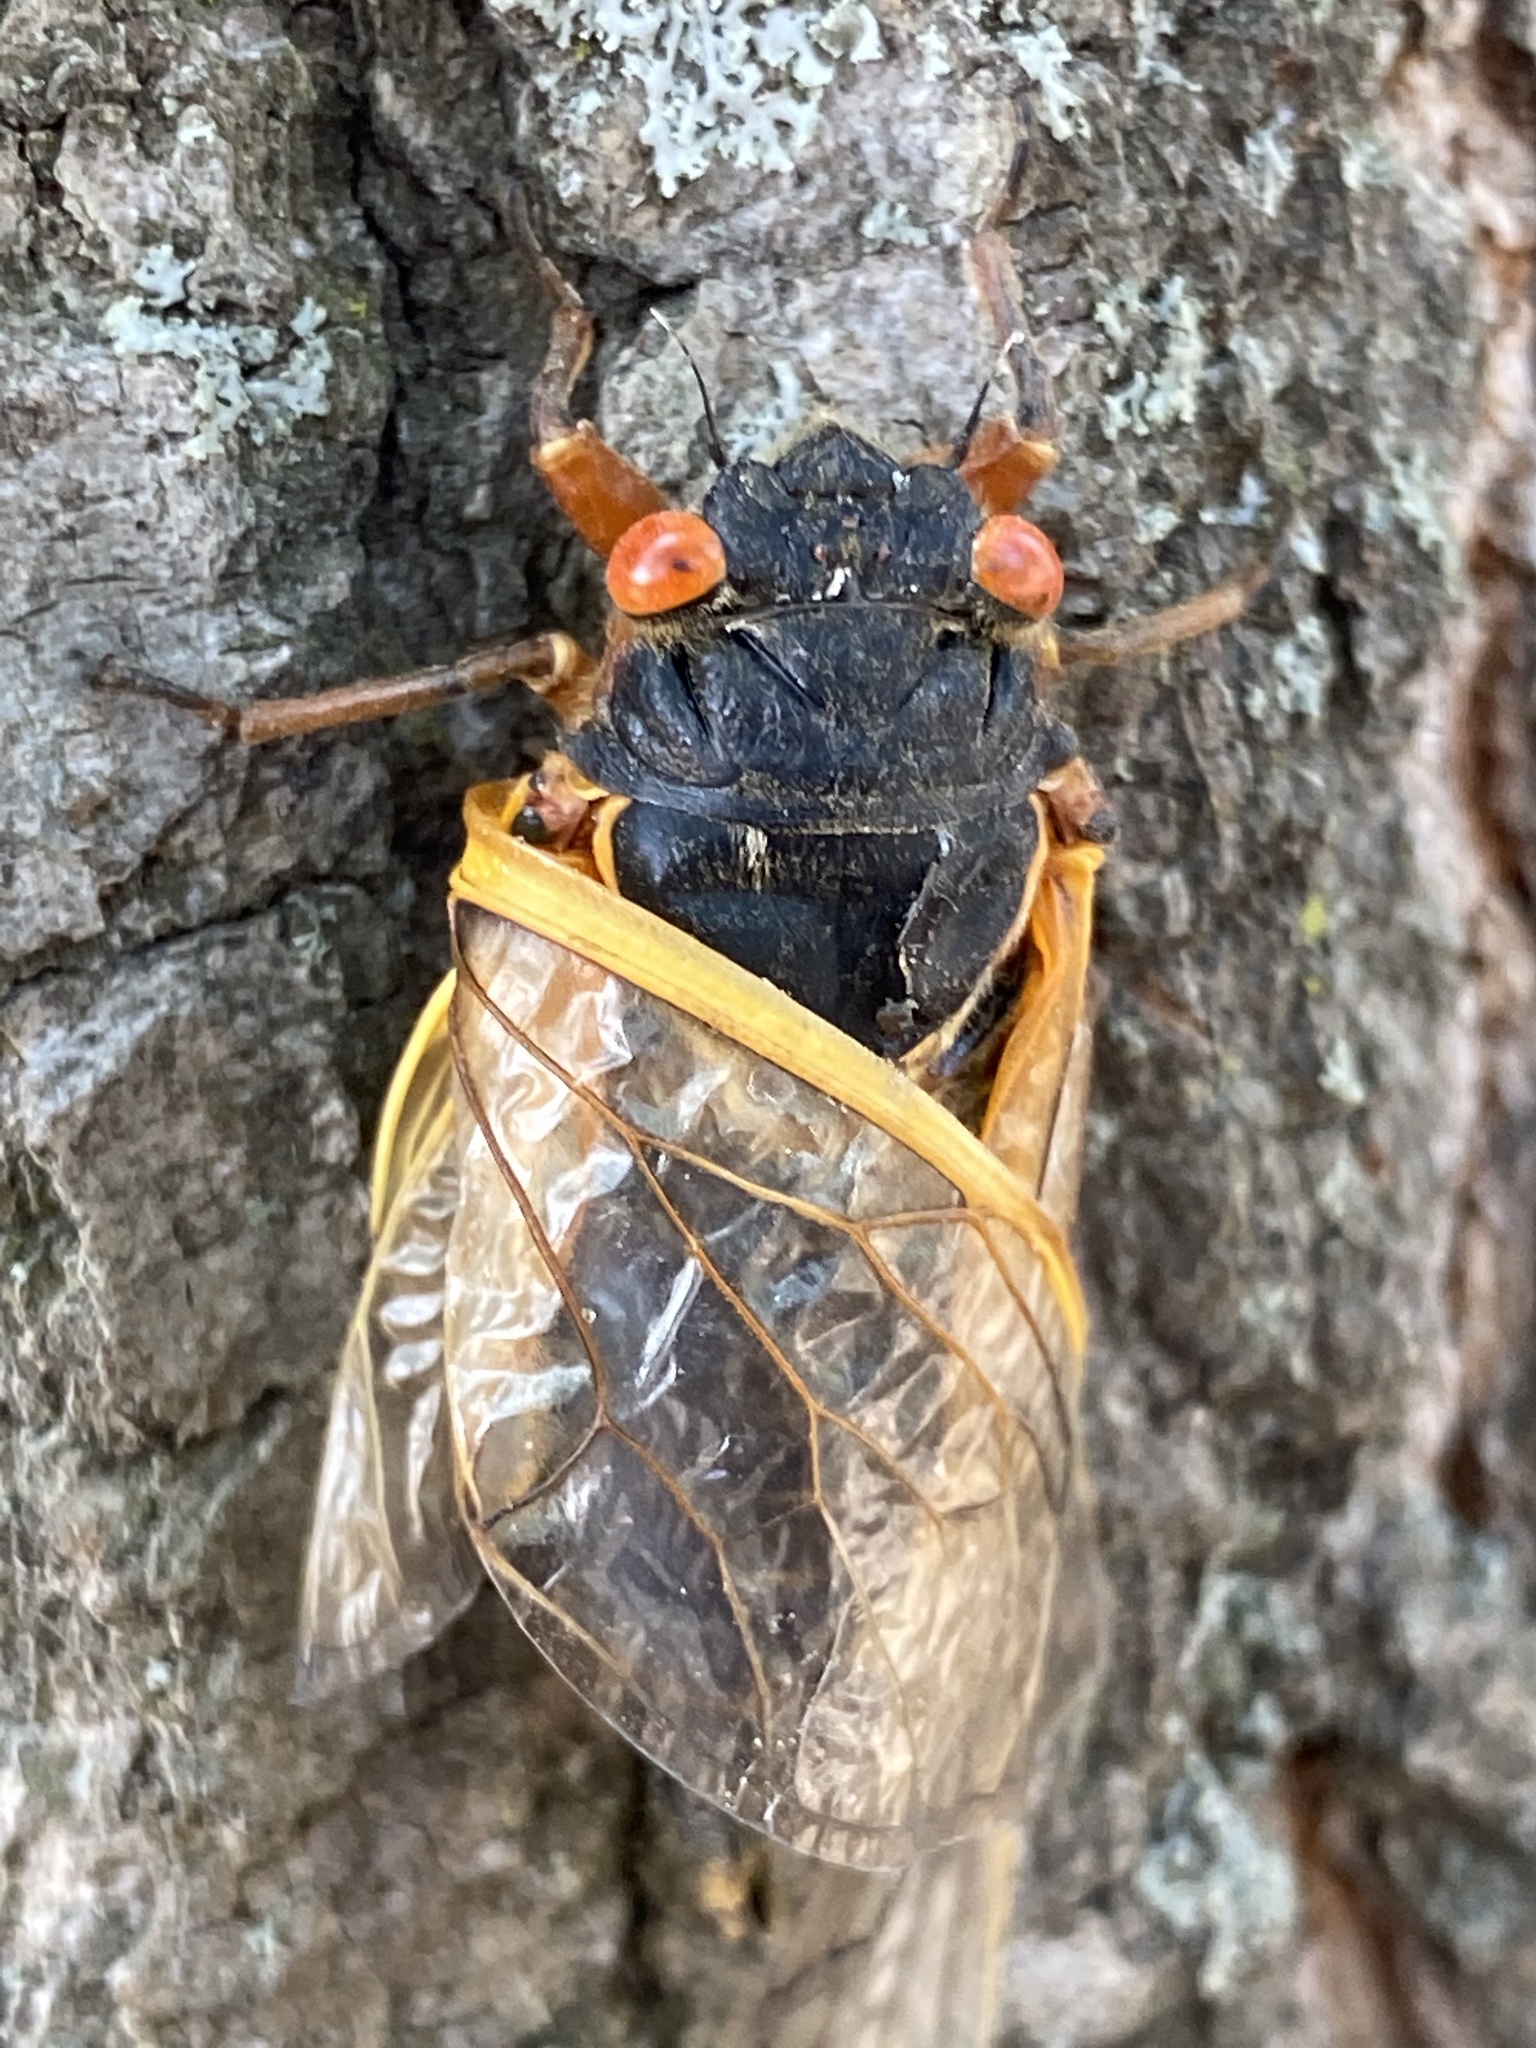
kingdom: Animalia
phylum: Arthropoda
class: Insecta
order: Hemiptera
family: Cicadidae
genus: Magicicada
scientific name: Magicicada
